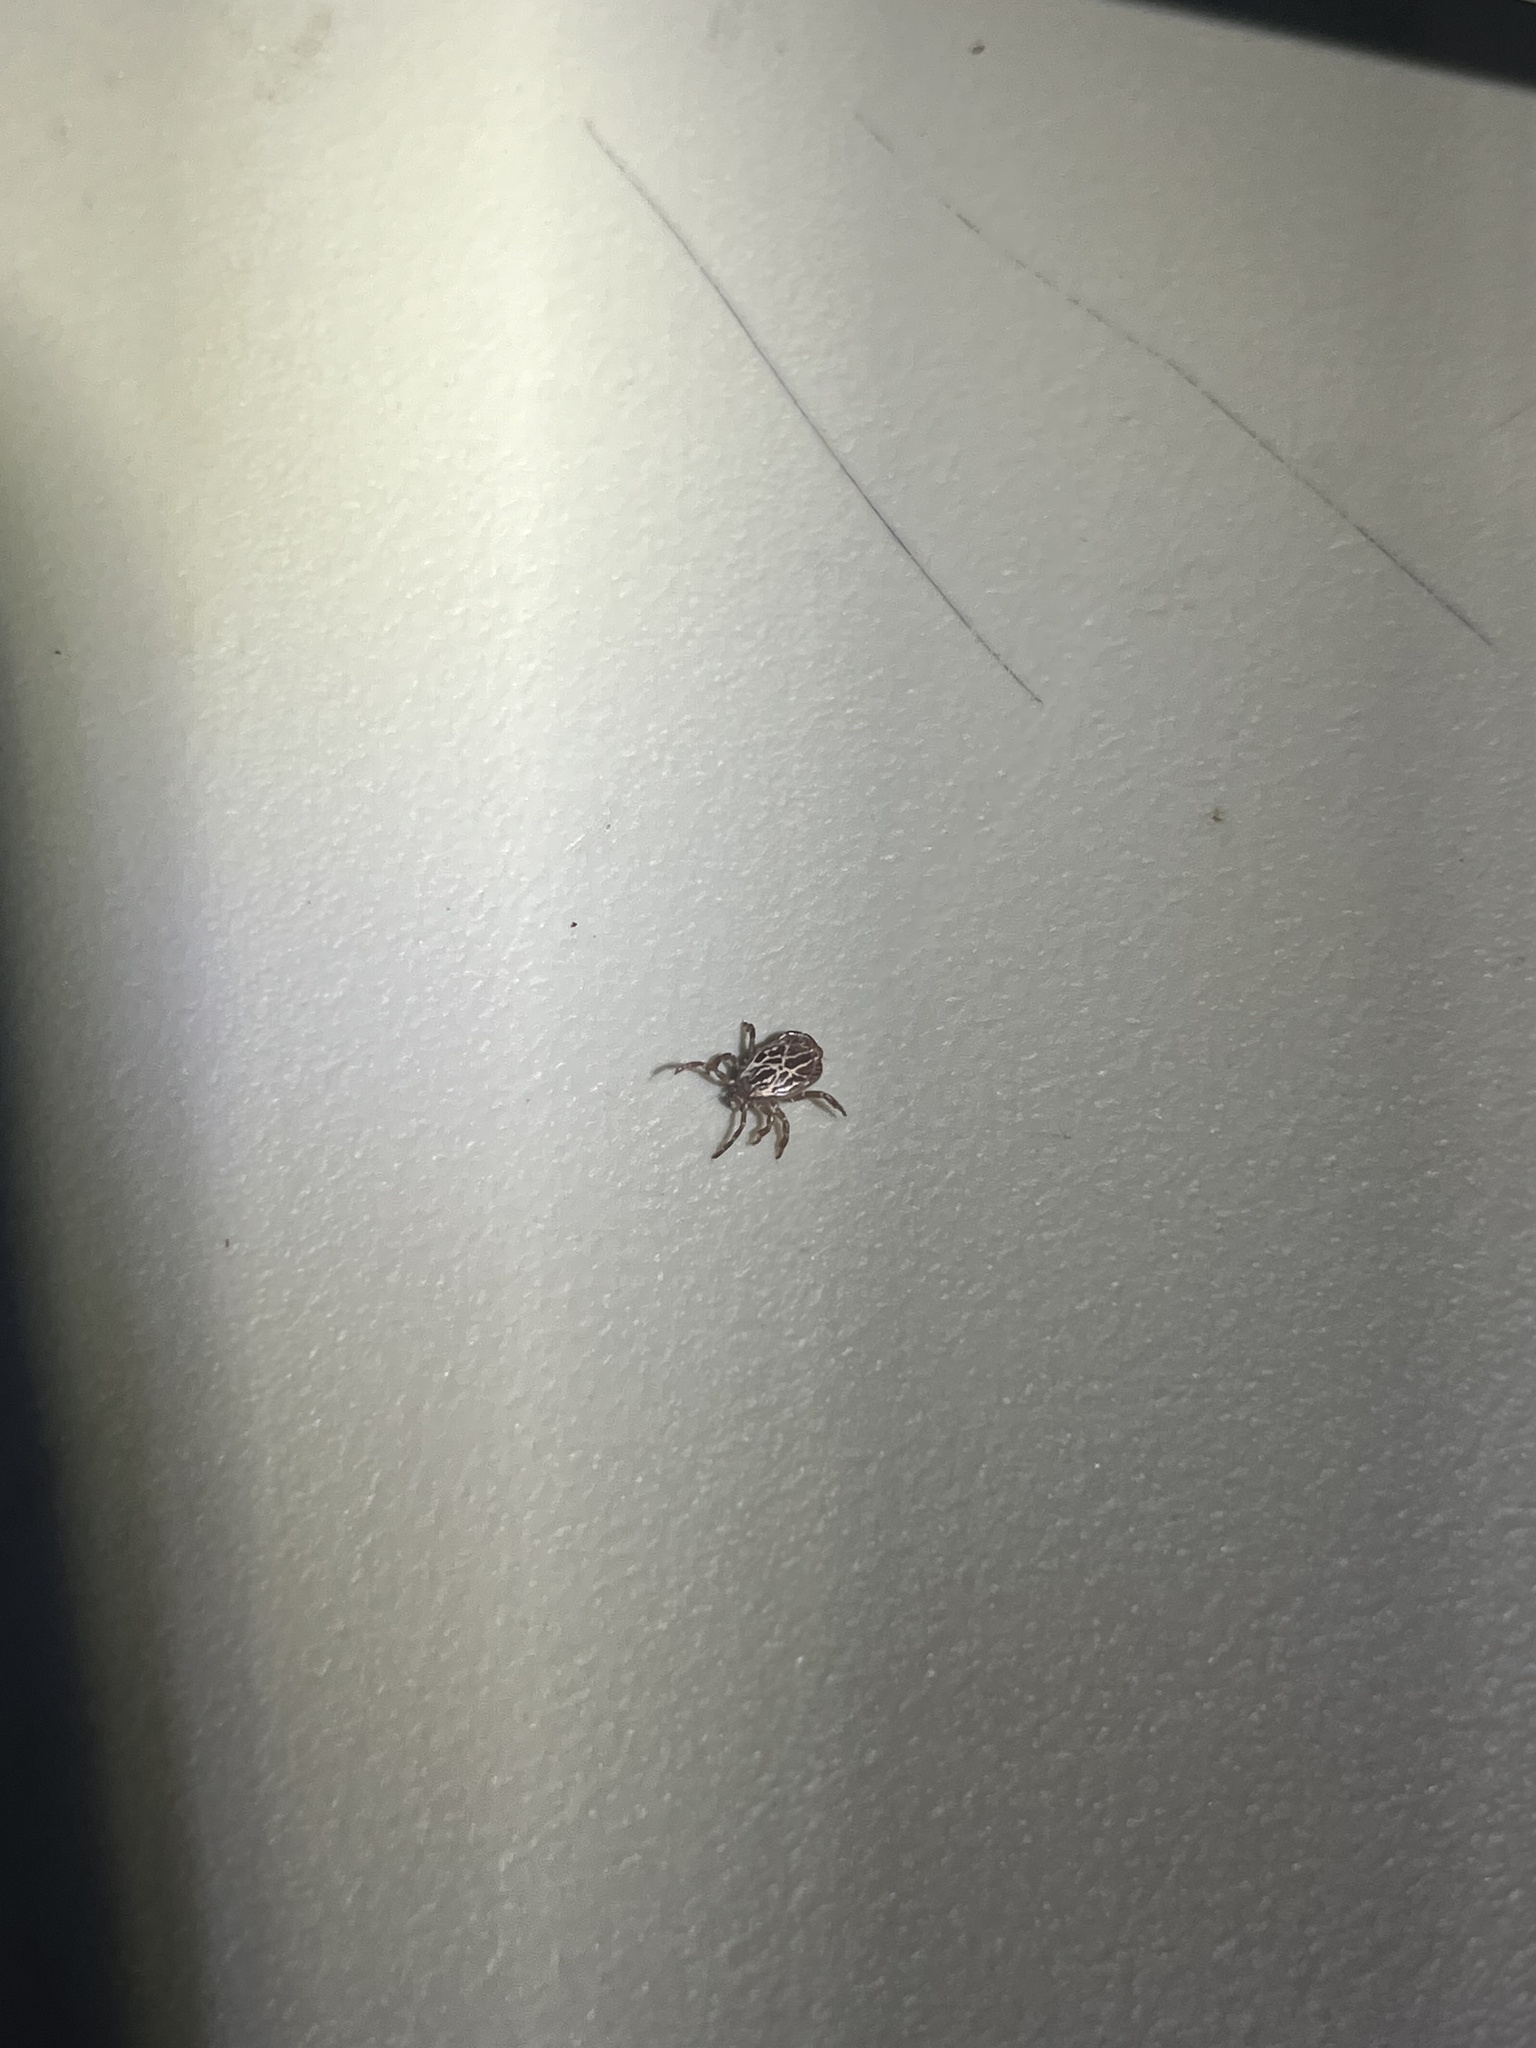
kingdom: Animalia
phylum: Arthropoda
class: Arachnida
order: Ixodida
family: Ixodidae
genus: Amblyomma
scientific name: Amblyomma maculatum
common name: Gulf coast tick
